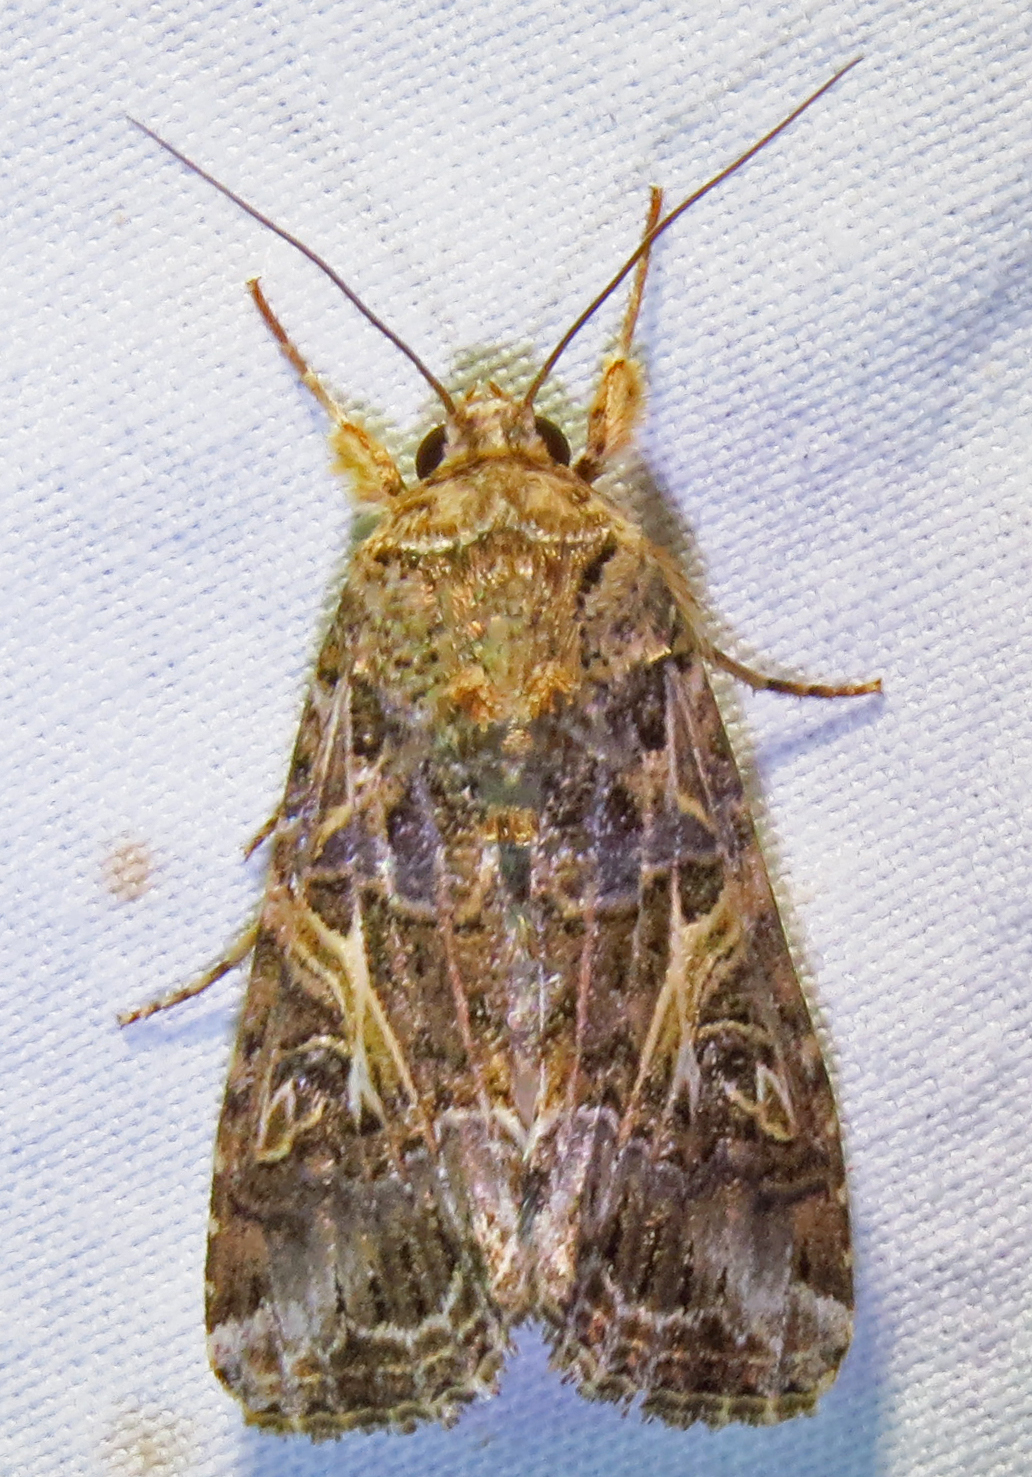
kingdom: Animalia
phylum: Arthropoda
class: Insecta
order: Lepidoptera
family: Noctuidae
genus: Spodoptera
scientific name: Spodoptera ornithogalli
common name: Yellow-striped armyworm
